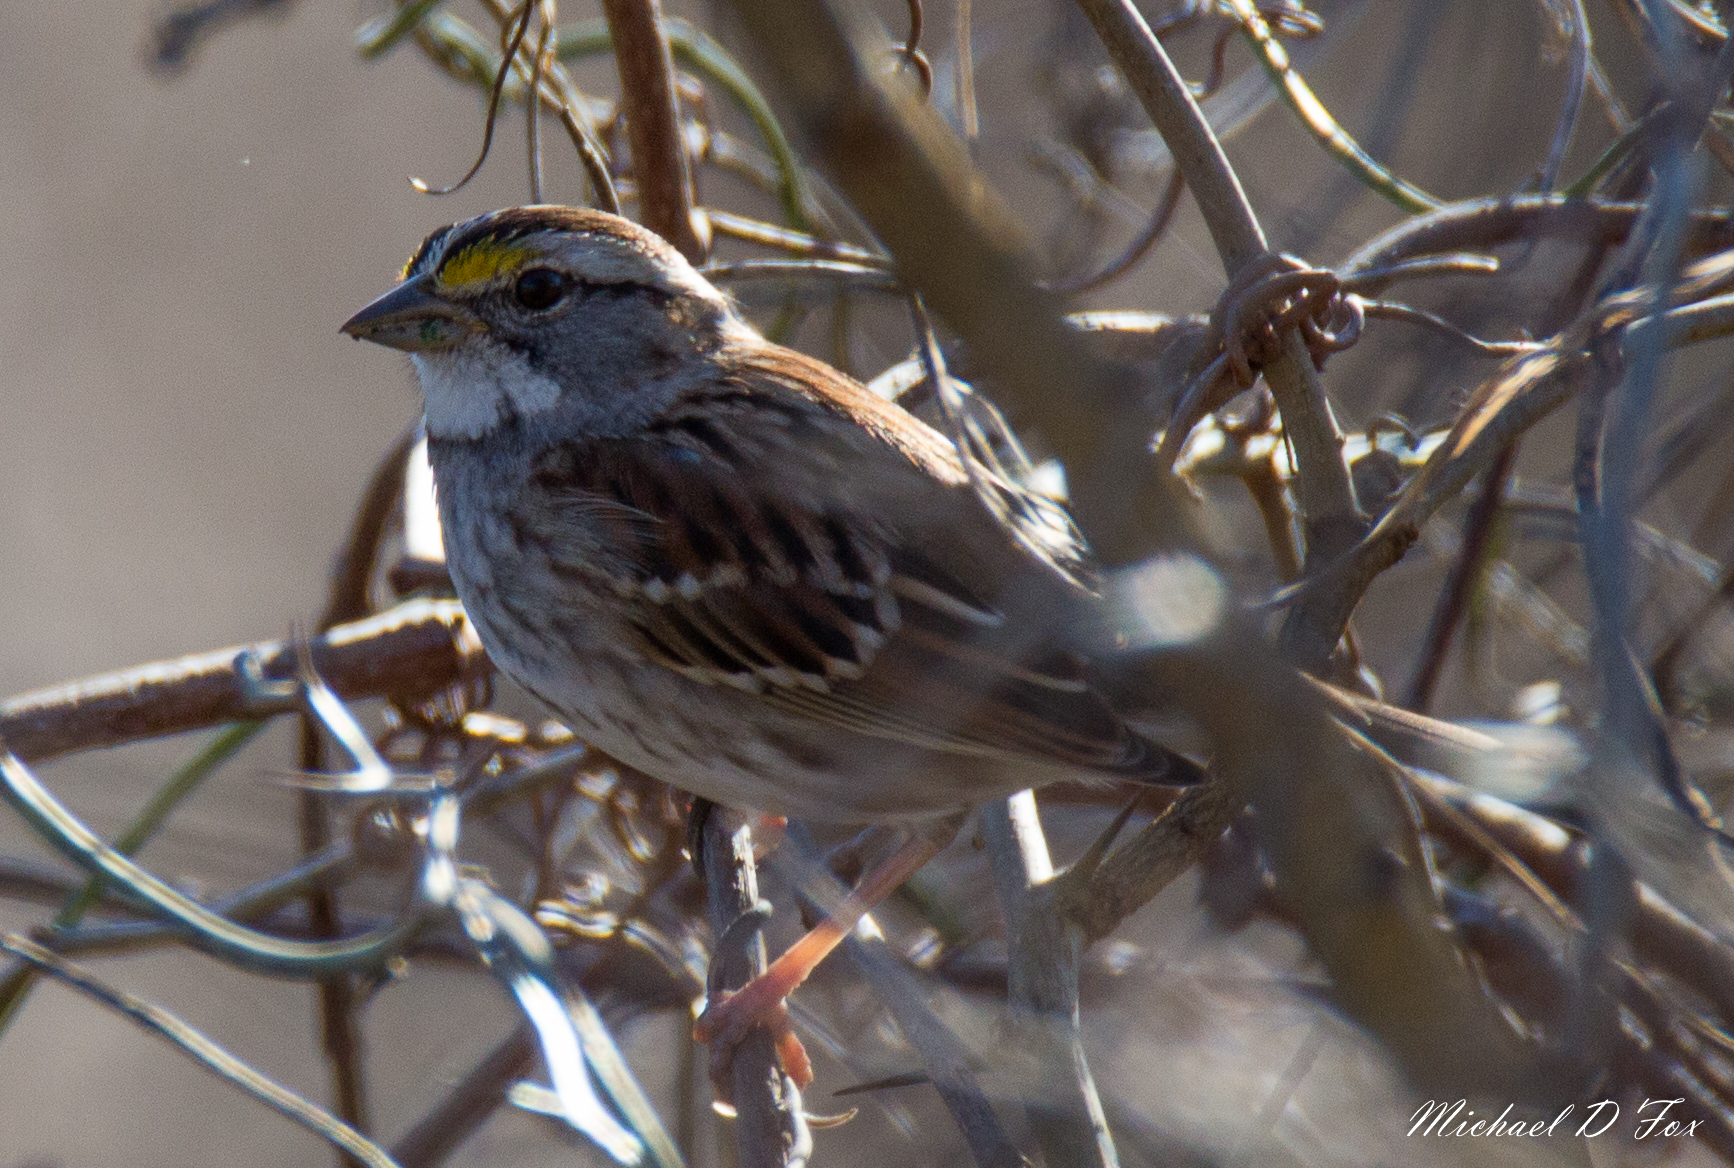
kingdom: Animalia
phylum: Chordata
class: Aves
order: Passeriformes
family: Passerellidae
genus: Zonotrichia
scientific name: Zonotrichia albicollis
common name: White-throated sparrow
